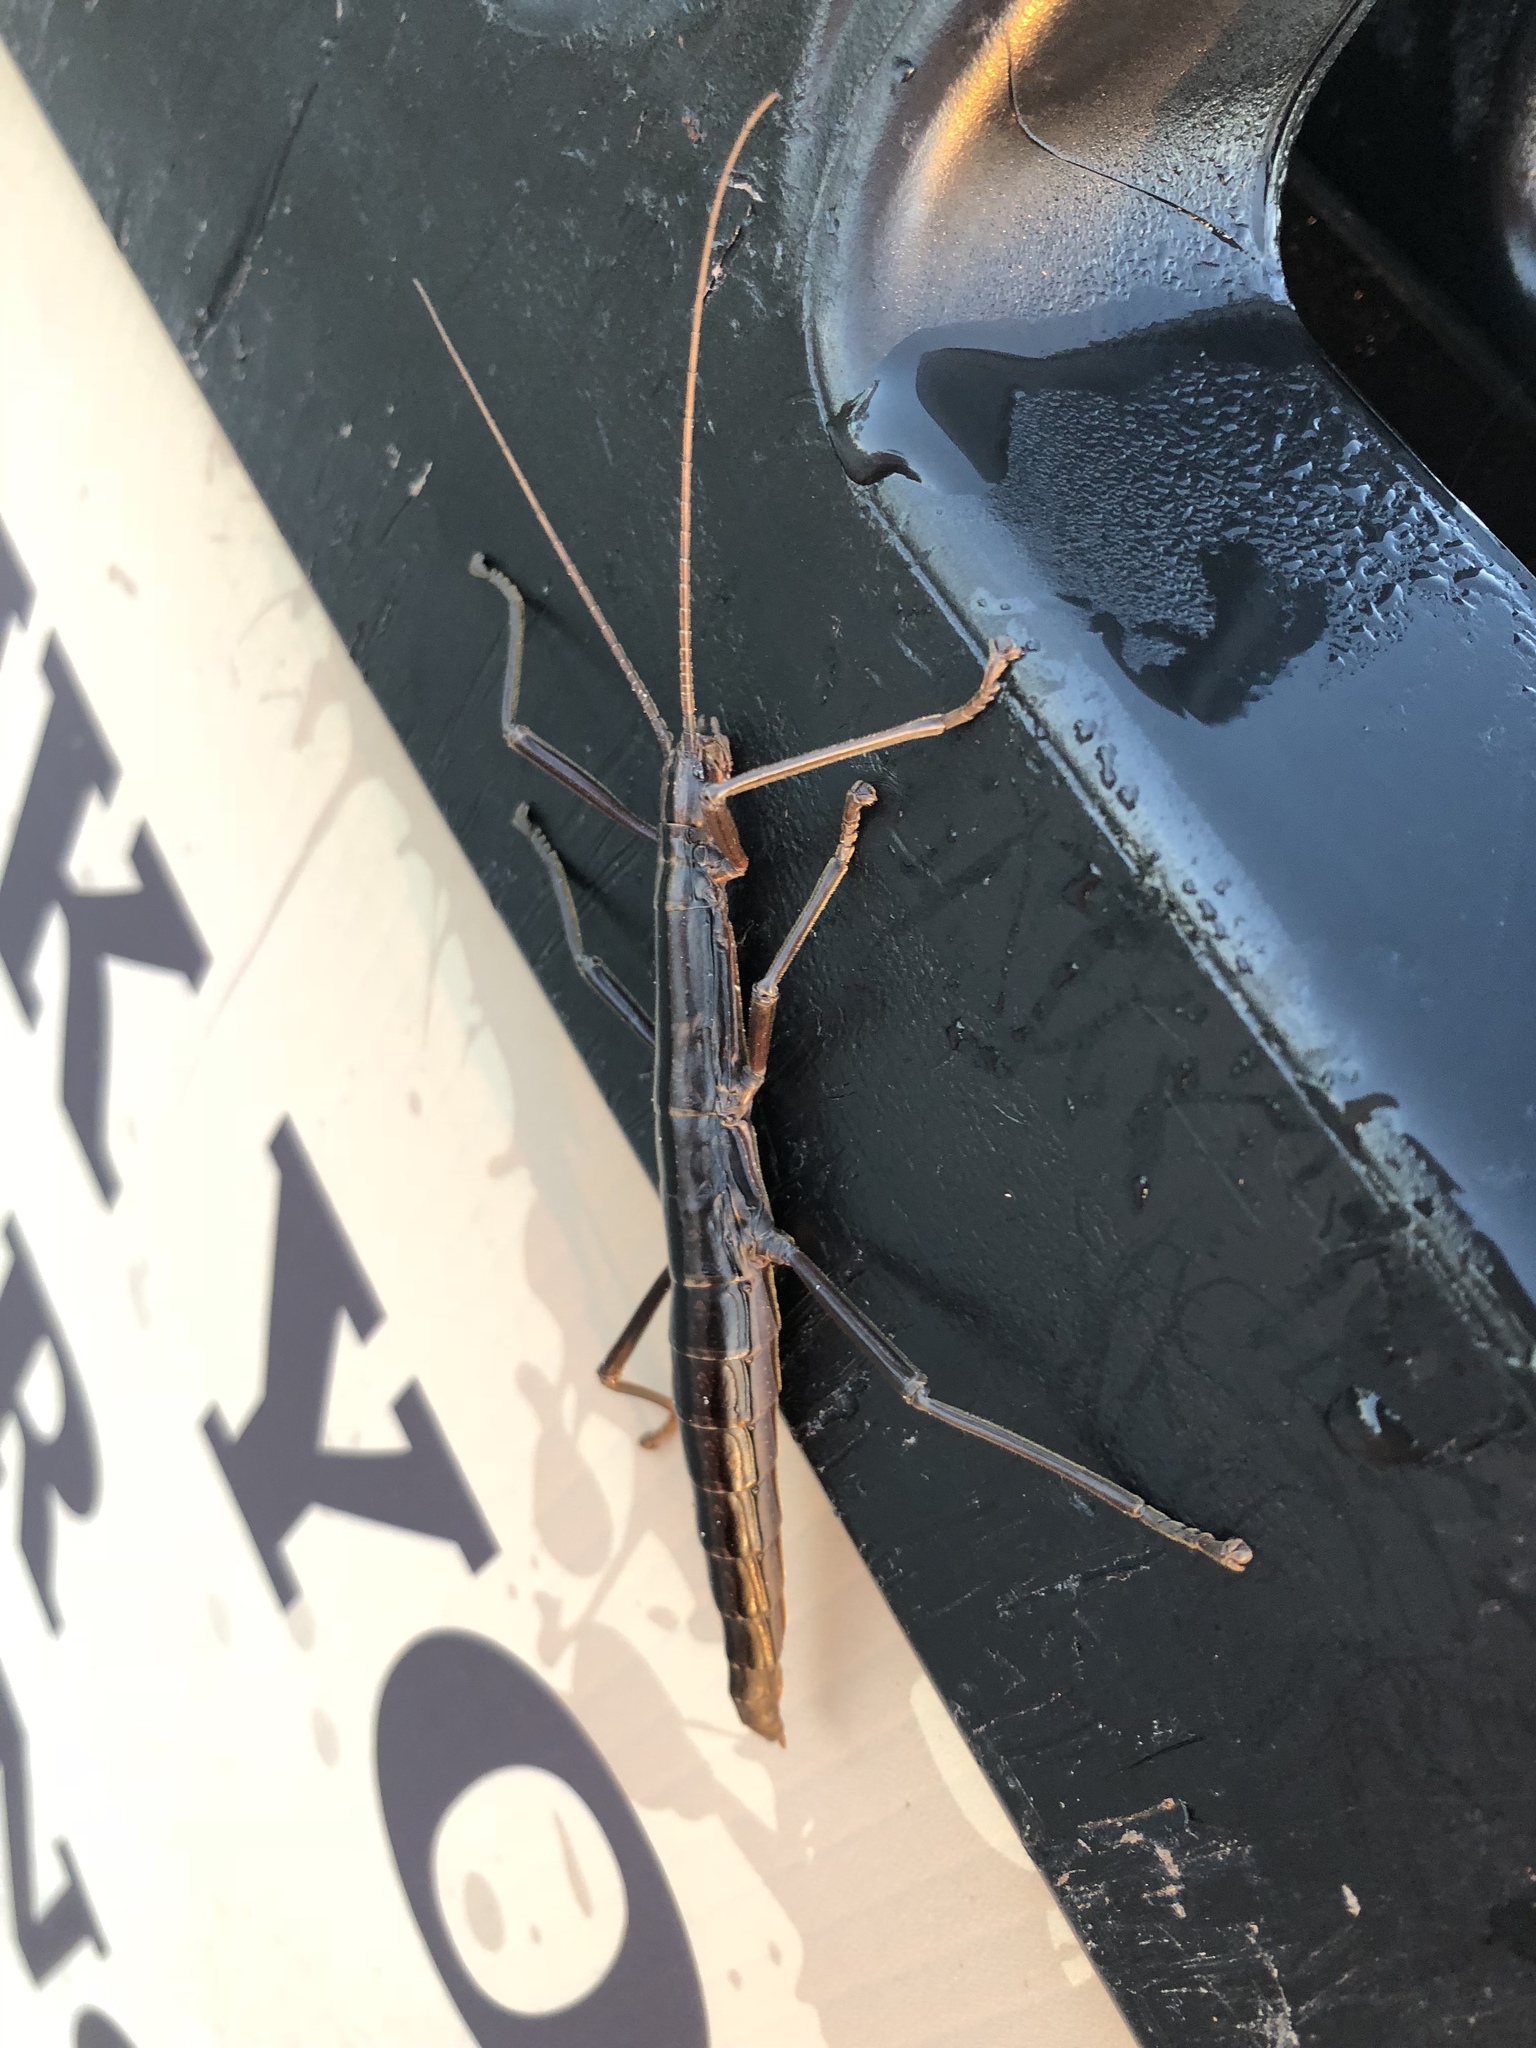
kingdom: Animalia
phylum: Arthropoda
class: Insecta
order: Phasmida
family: Pseudophasmatidae
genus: Anisomorpha
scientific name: Anisomorpha buprestoides
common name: Florida stick insect
